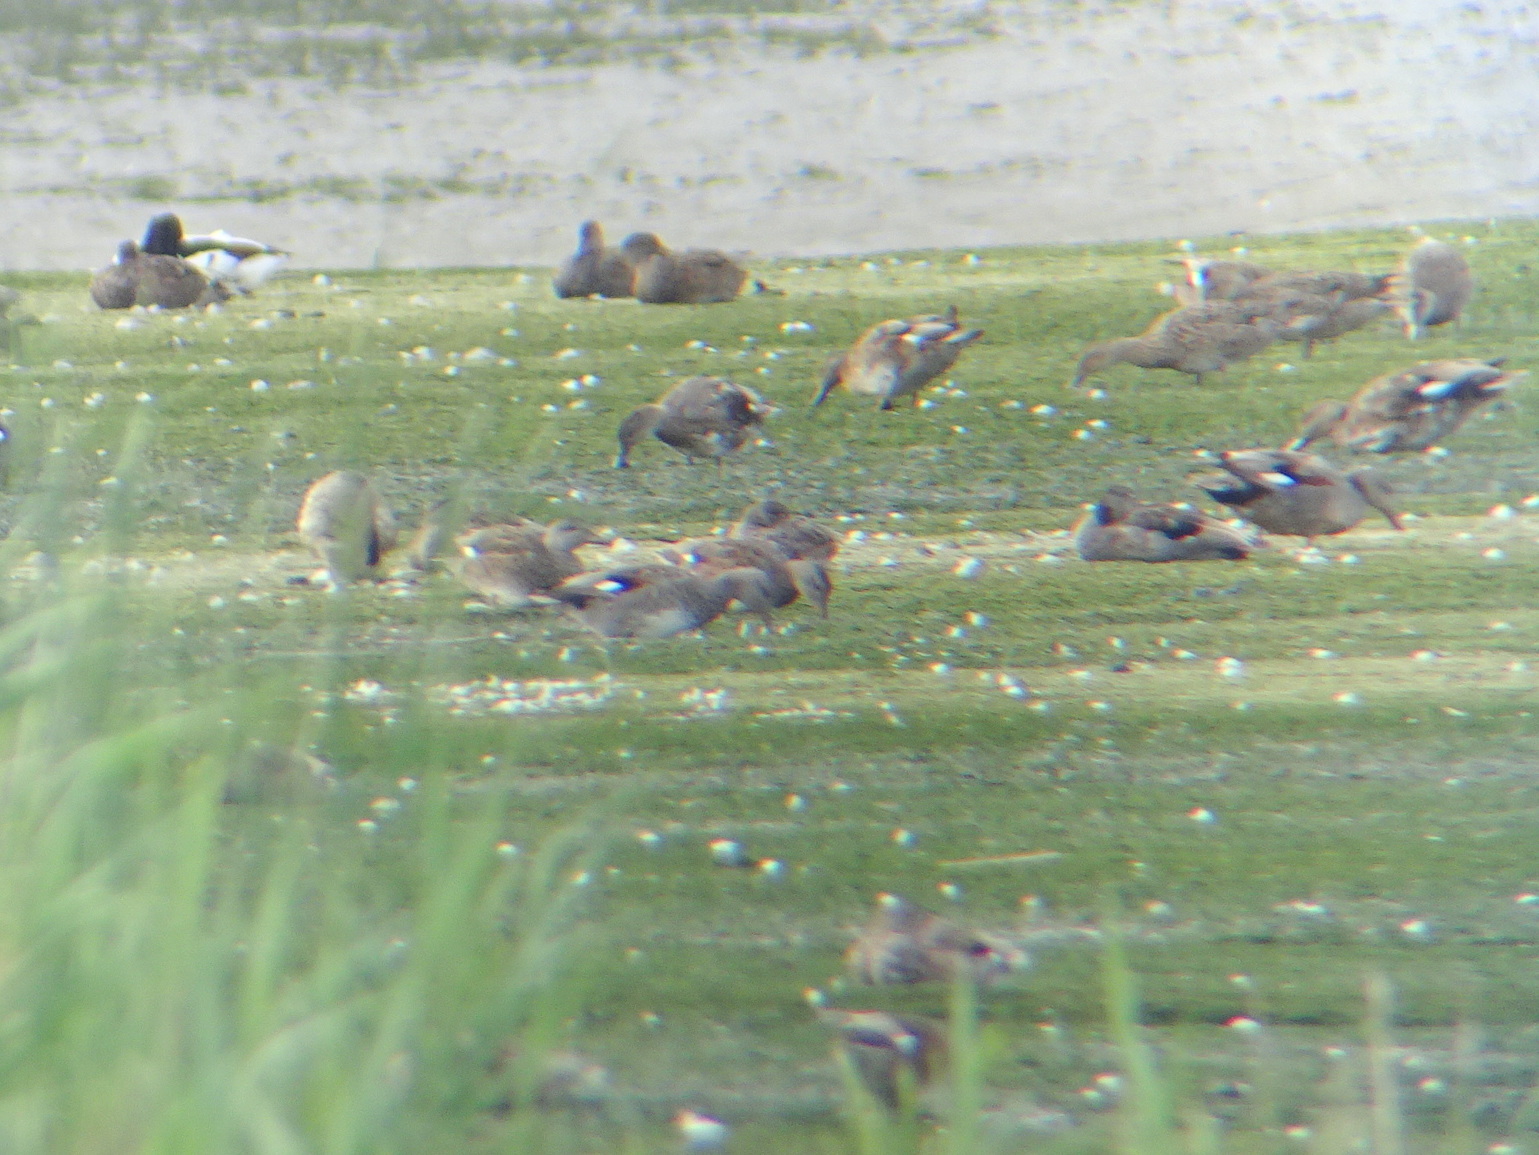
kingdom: Animalia
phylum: Chordata
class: Aves
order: Anseriformes
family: Anatidae
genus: Mareca
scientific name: Mareca strepera
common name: Gadwall
